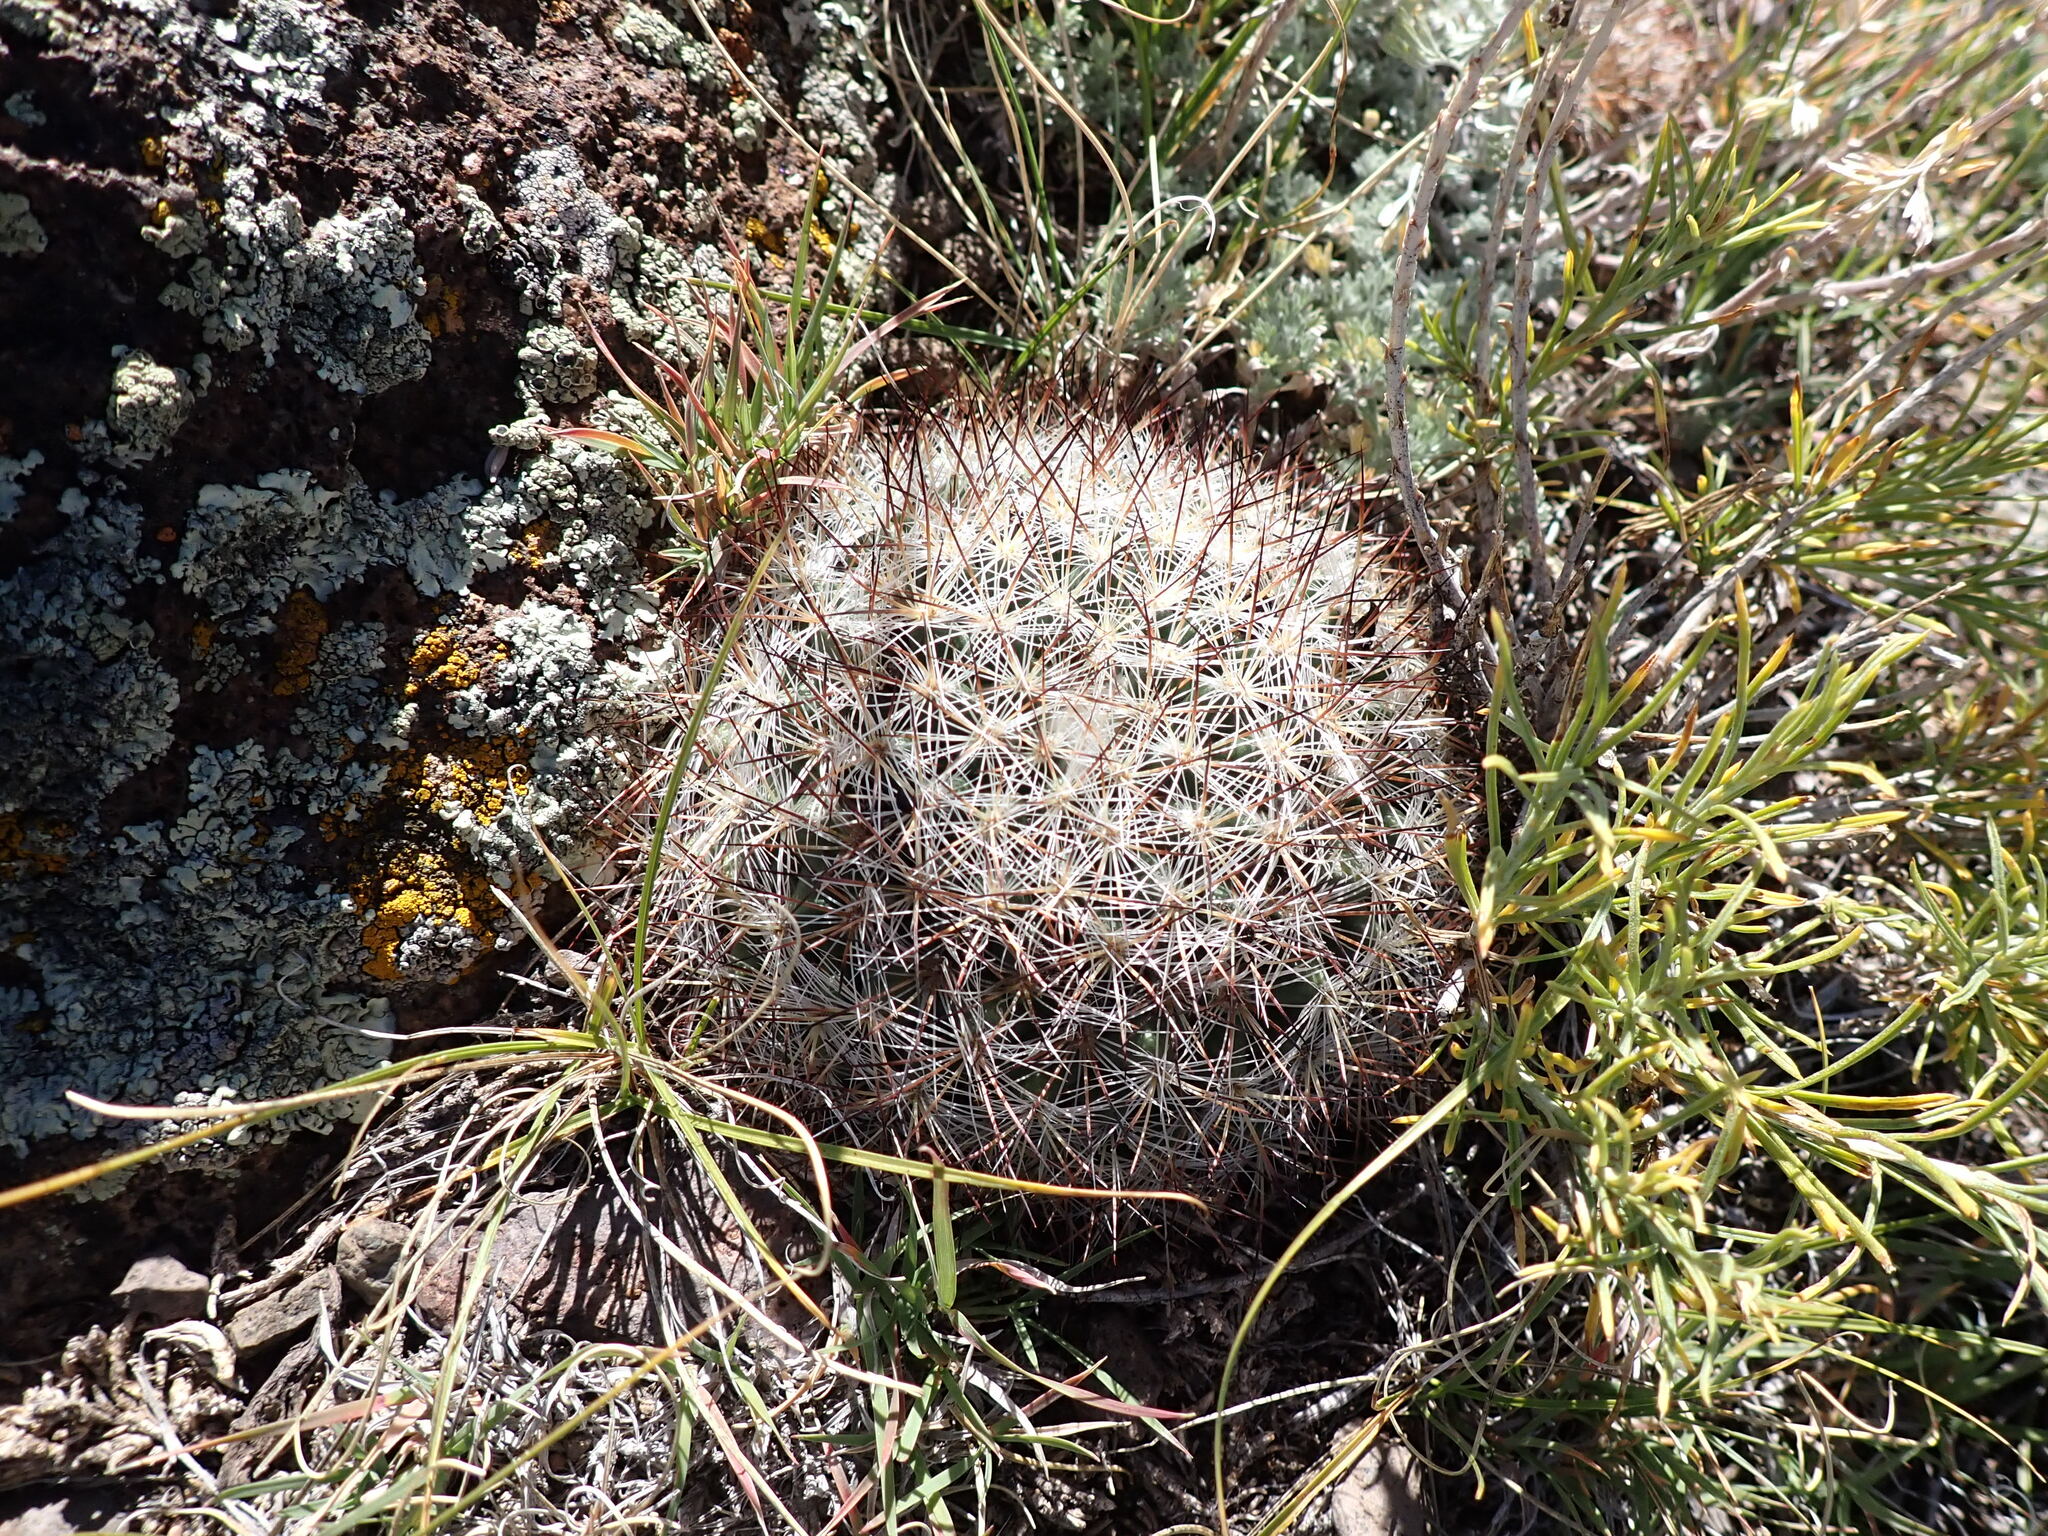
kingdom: Plantae
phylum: Tracheophyta
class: Magnoliopsida
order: Caryophyllales
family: Cactaceae
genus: Pediocactus
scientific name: Pediocactus simpsonii
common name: Simpson's hedgehog cactus
